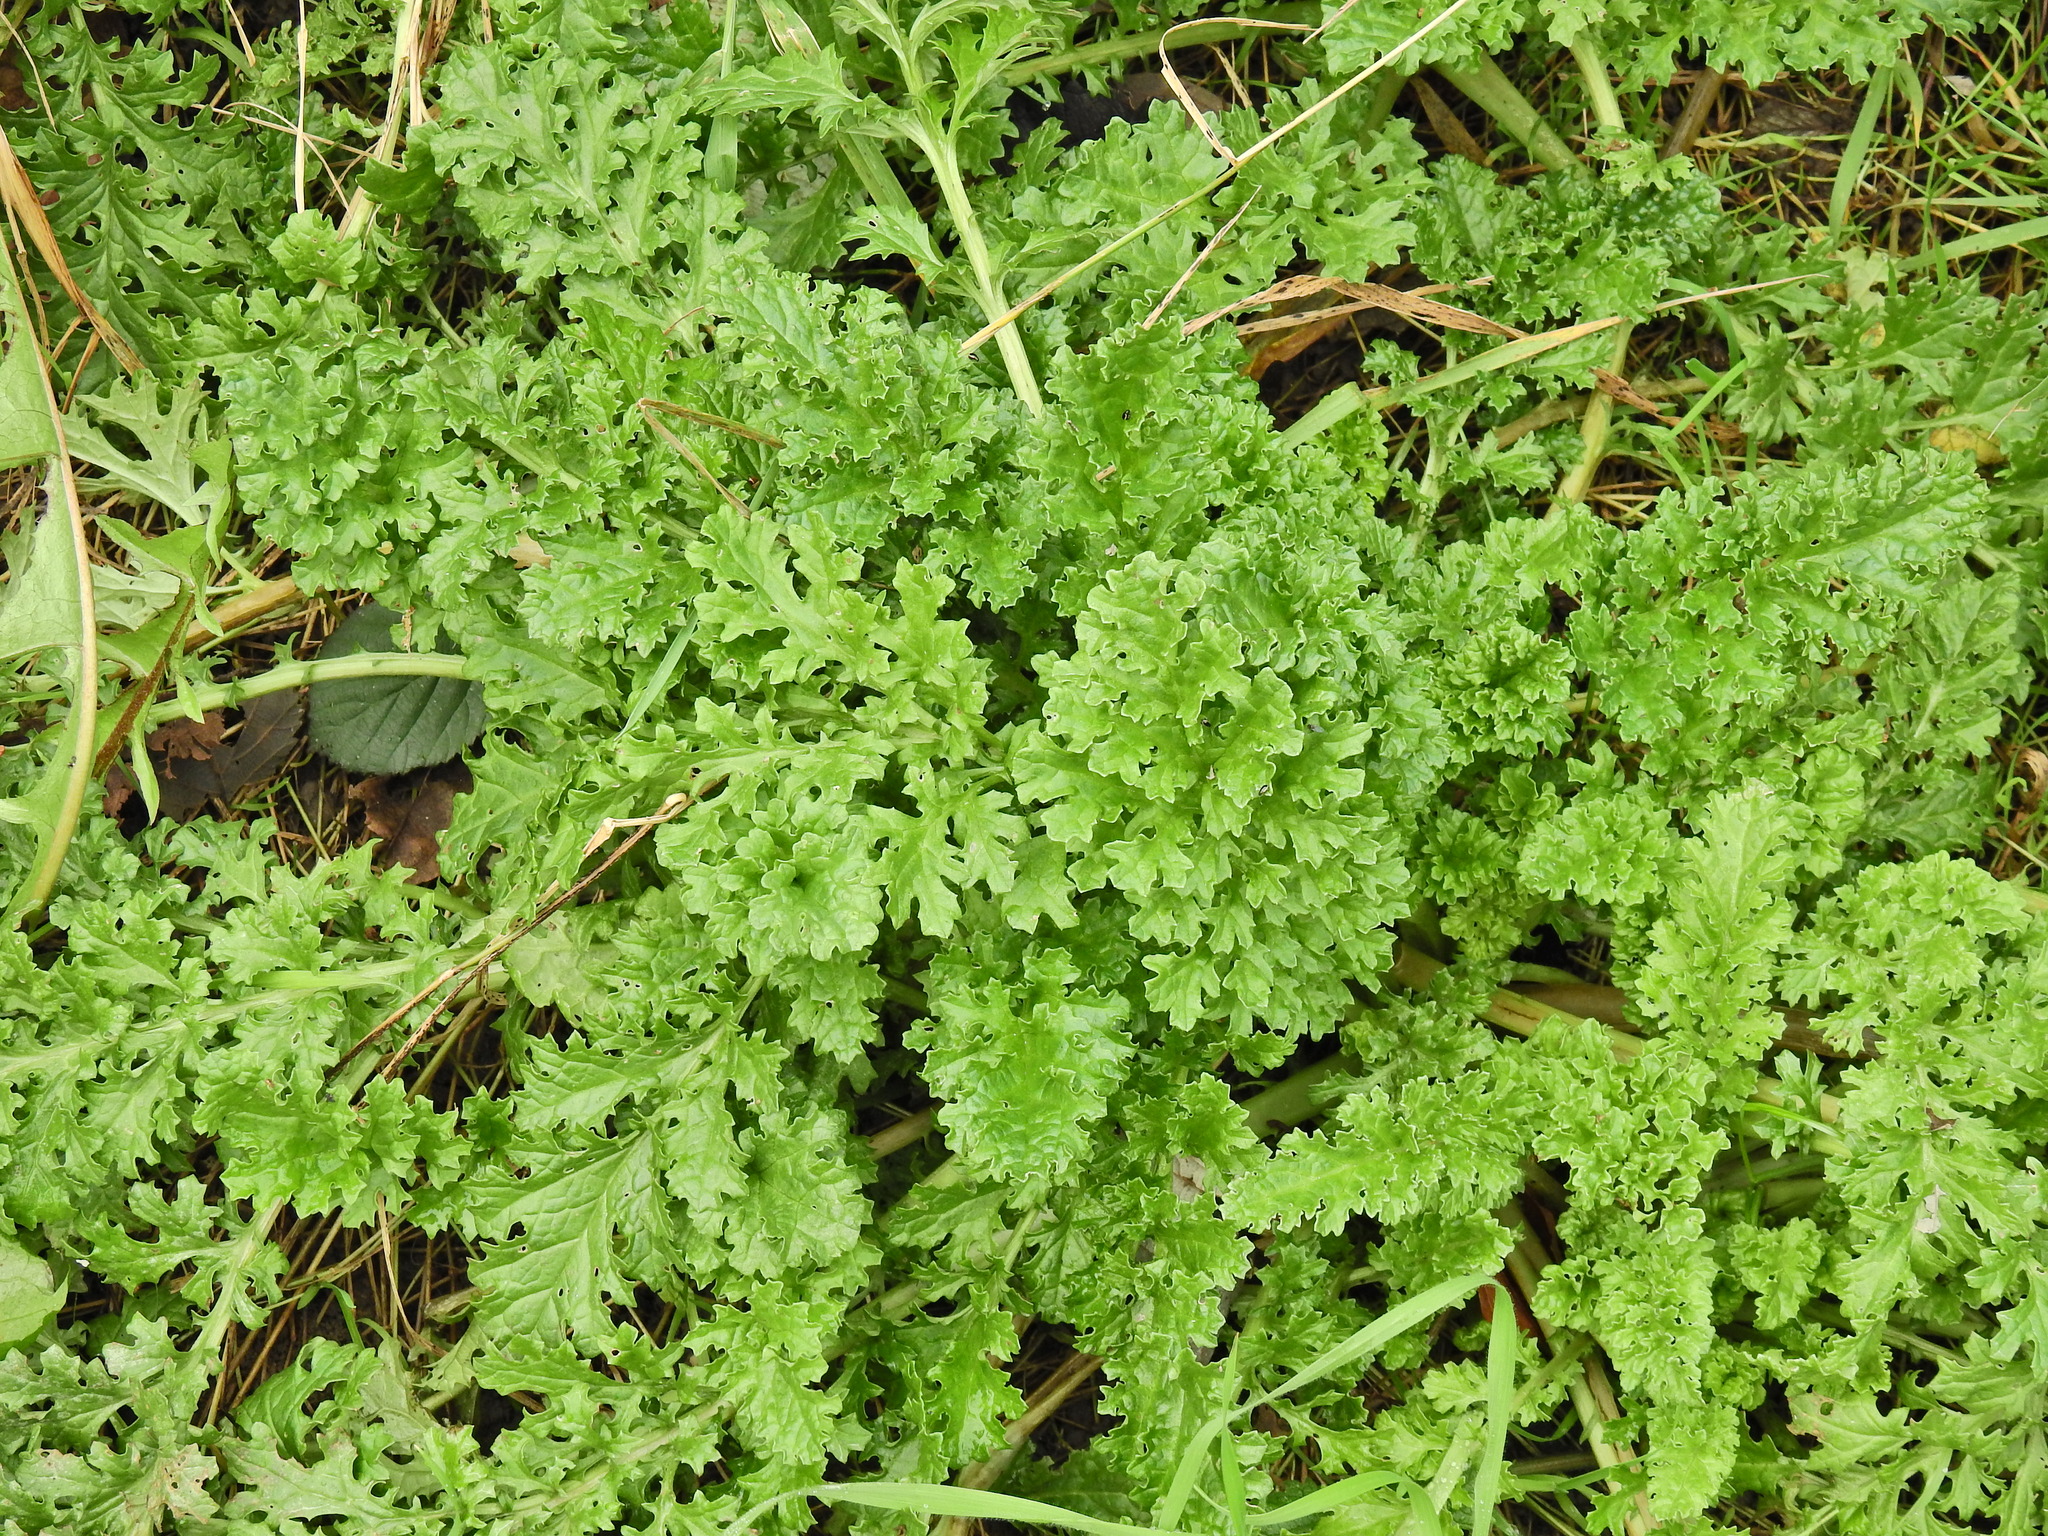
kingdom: Plantae
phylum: Tracheophyta
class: Magnoliopsida
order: Asterales
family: Asteraceae
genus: Jacobaea
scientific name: Jacobaea vulgaris
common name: Stinking willie
